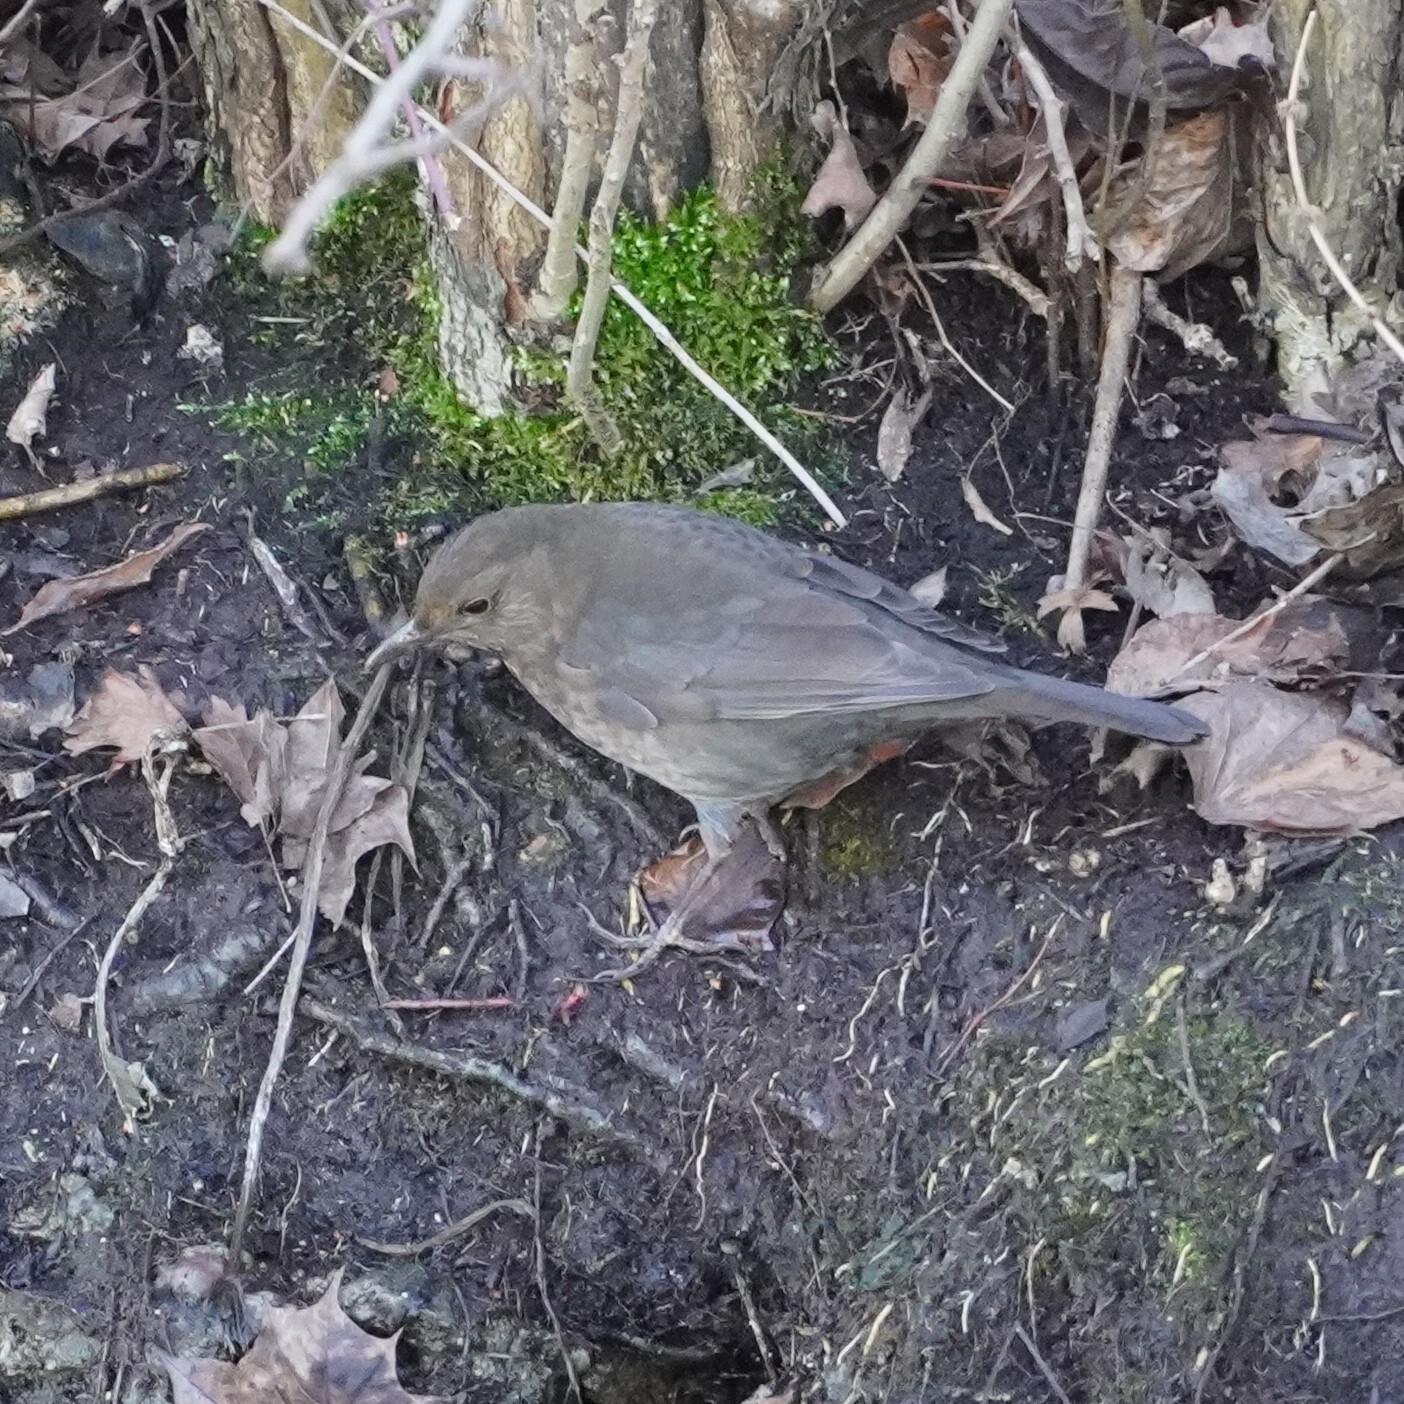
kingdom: Animalia
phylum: Chordata
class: Aves
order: Passeriformes
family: Turdidae
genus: Turdus
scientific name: Turdus merula
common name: Common blackbird
